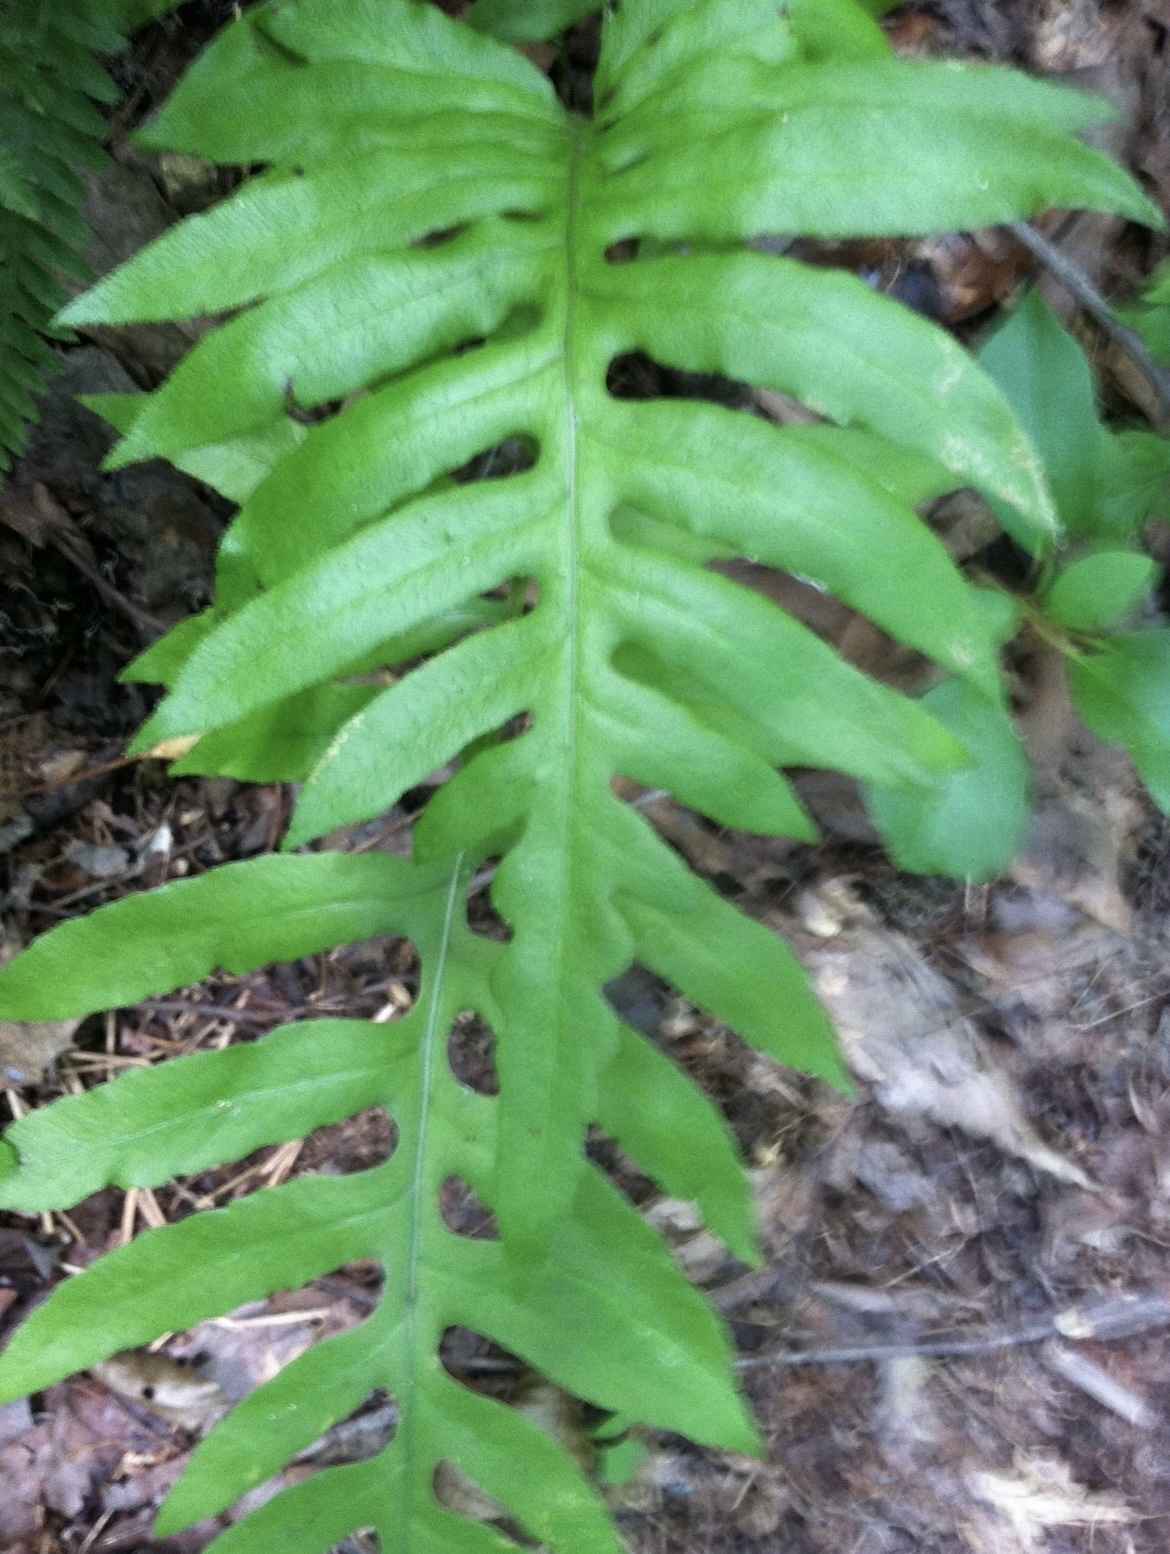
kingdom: Plantae
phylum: Tracheophyta
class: Polypodiopsida
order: Polypodiales
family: Blechnaceae
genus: Lorinseria
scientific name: Lorinseria areolata
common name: Dwarf chain fern
